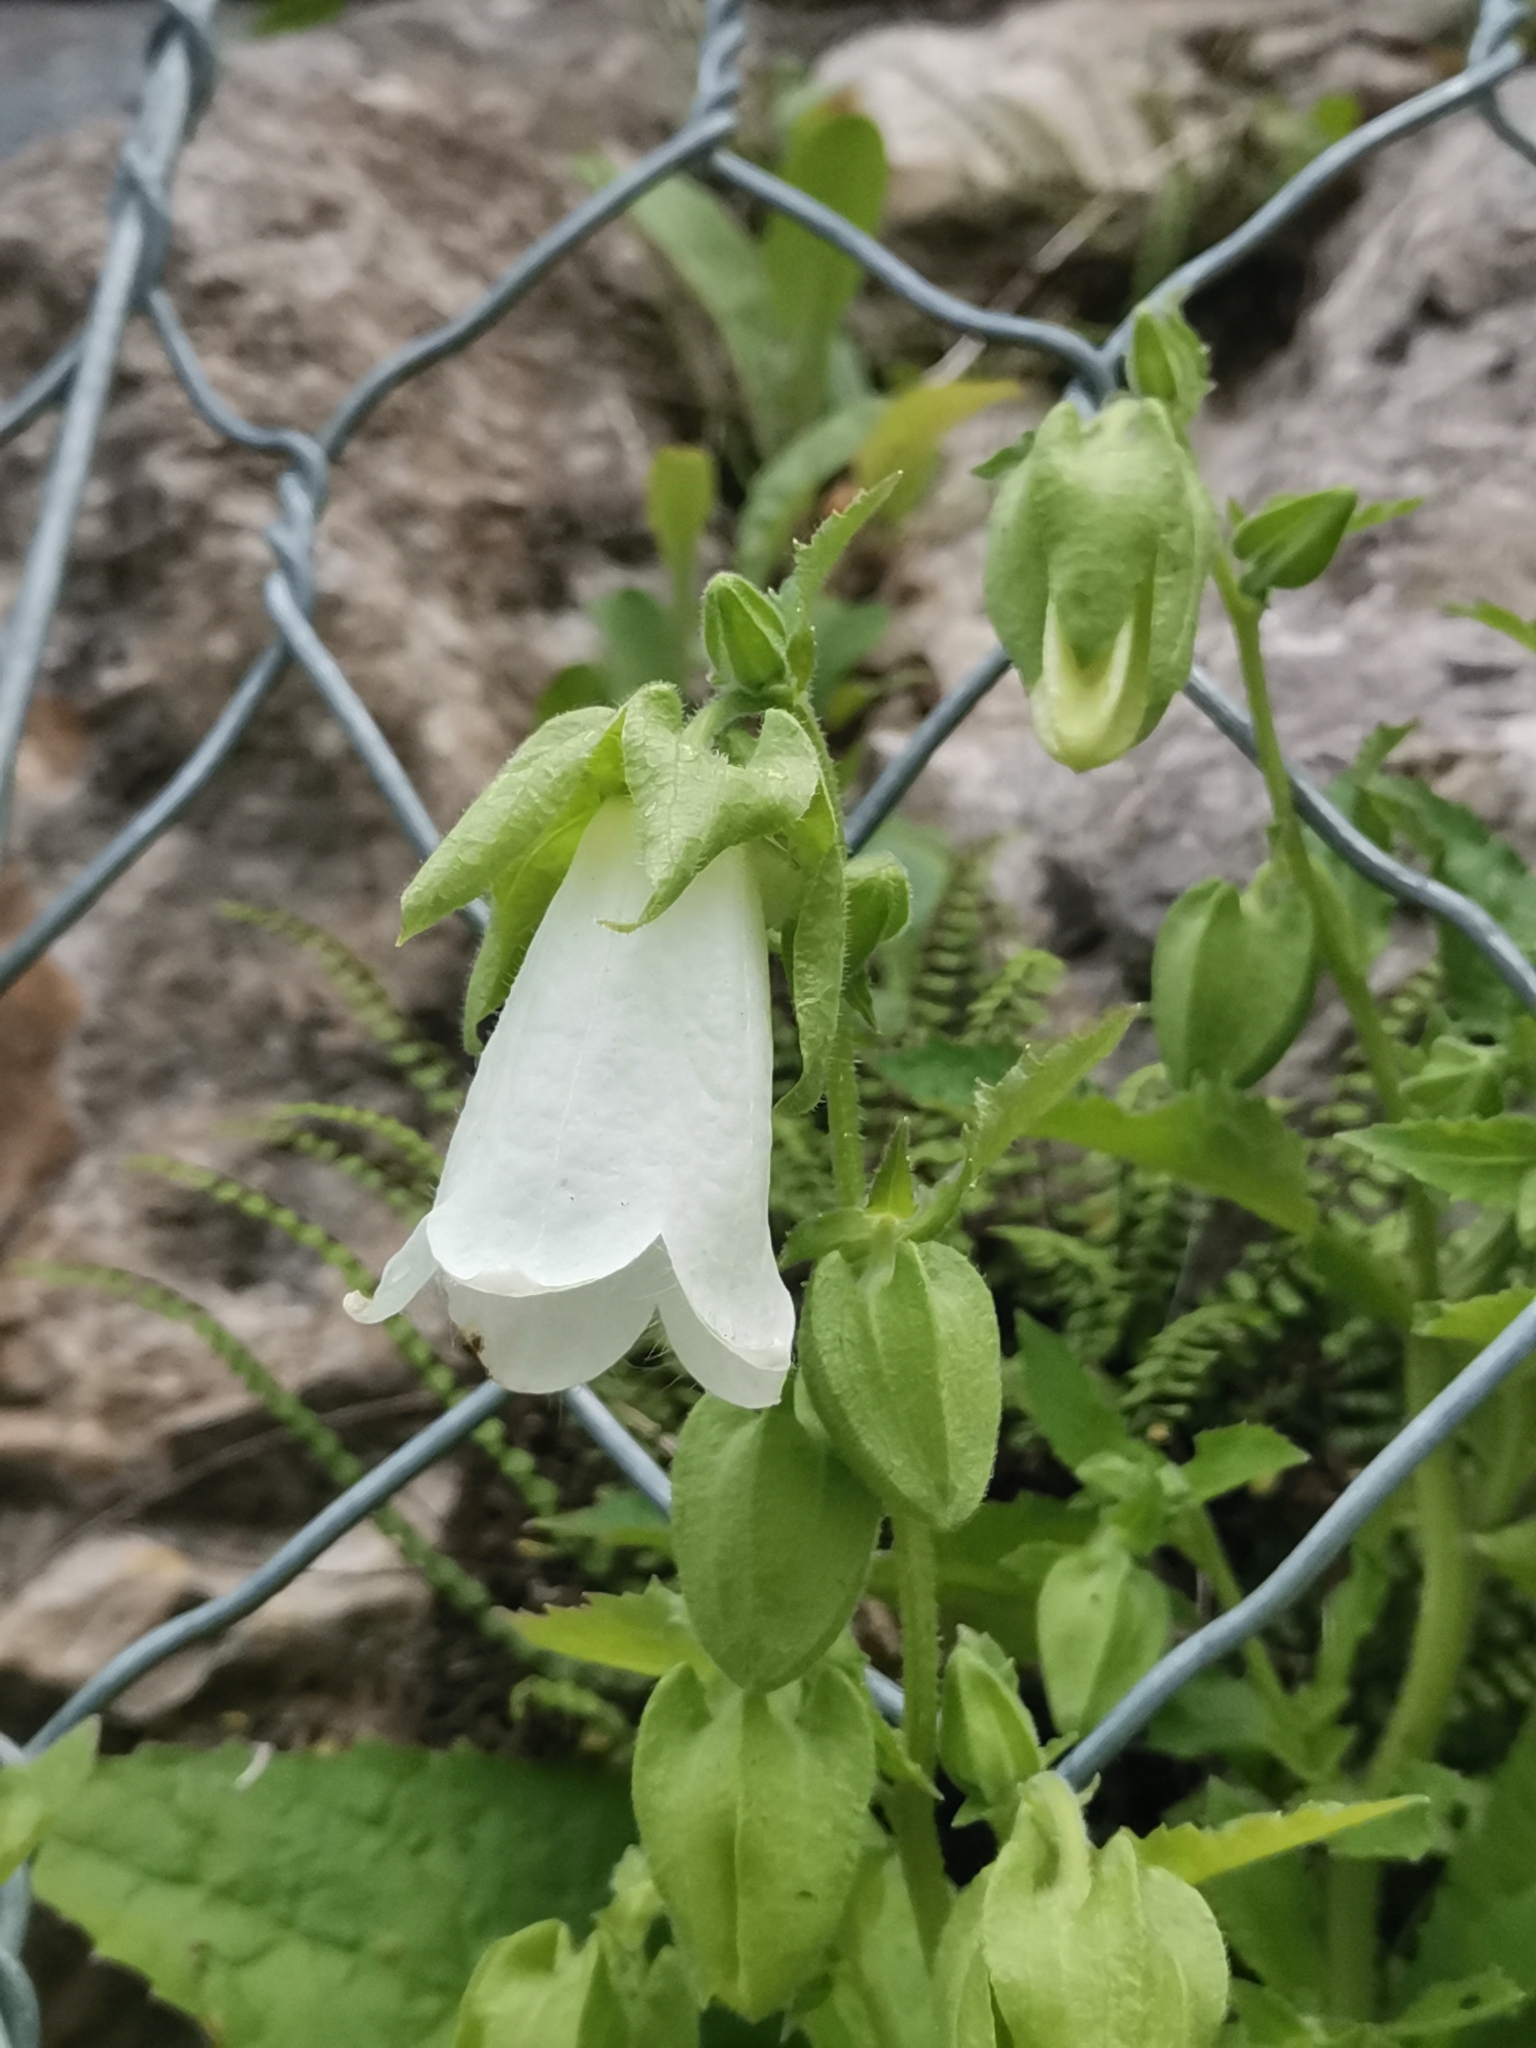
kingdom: Plantae
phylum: Tracheophyta
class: Magnoliopsida
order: Asterales
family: Campanulaceae
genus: Campanula
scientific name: Campanula hofmannii
